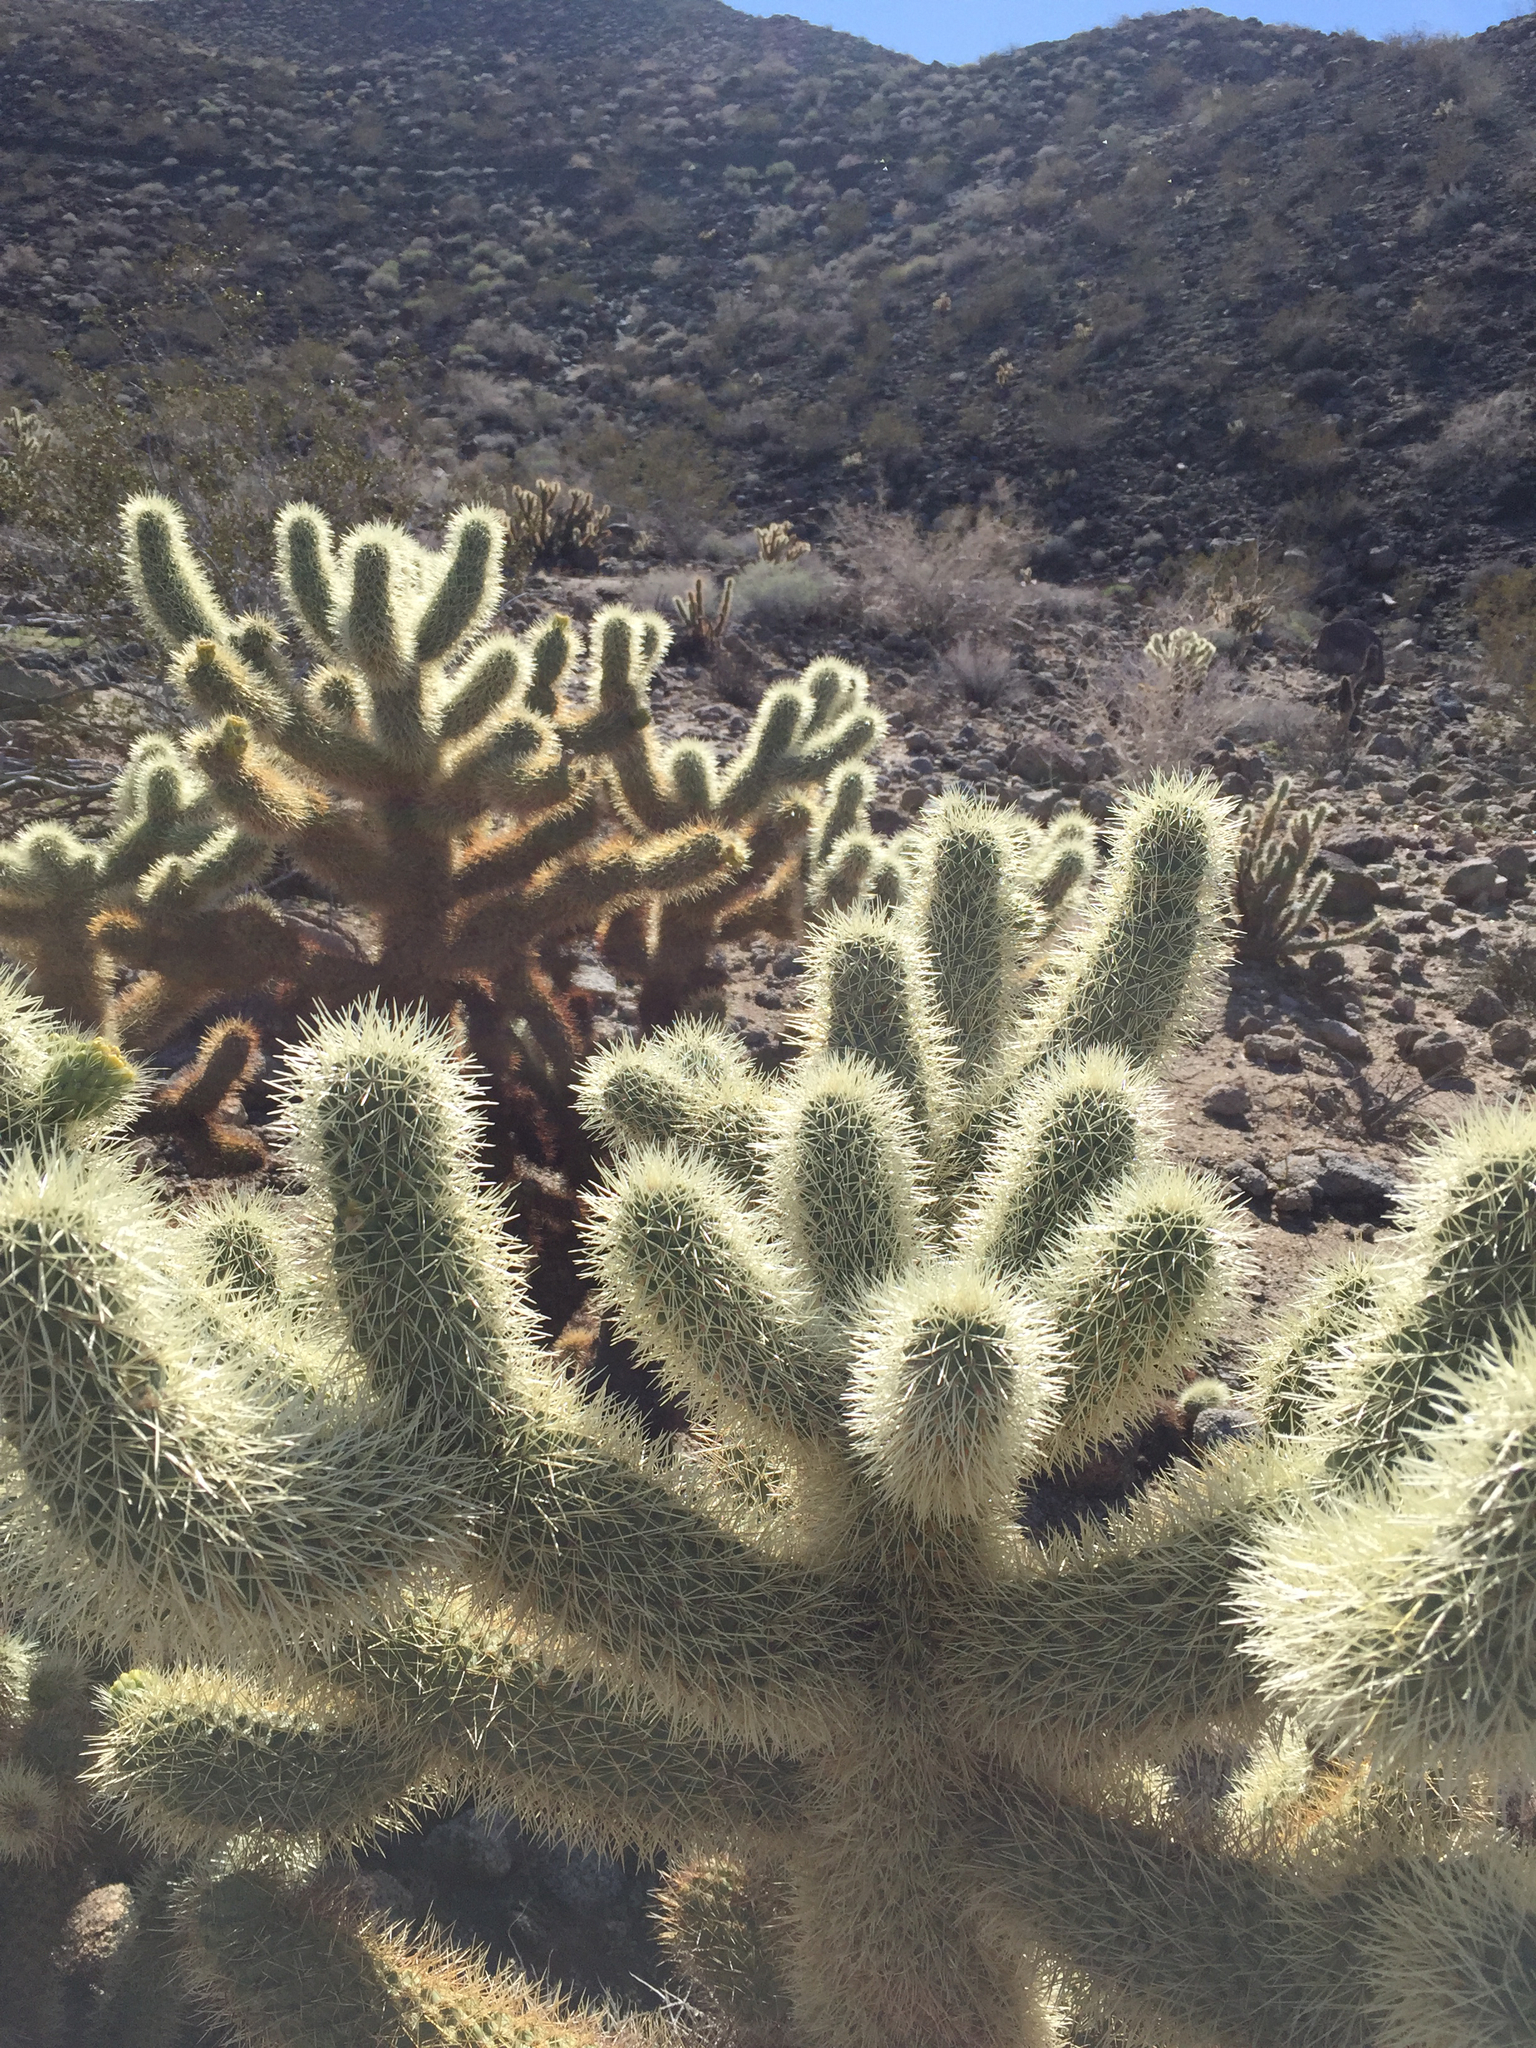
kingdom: Plantae
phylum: Tracheophyta
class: Magnoliopsida
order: Caryophyllales
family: Cactaceae
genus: Cylindropuntia
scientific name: Cylindropuntia fosbergii
